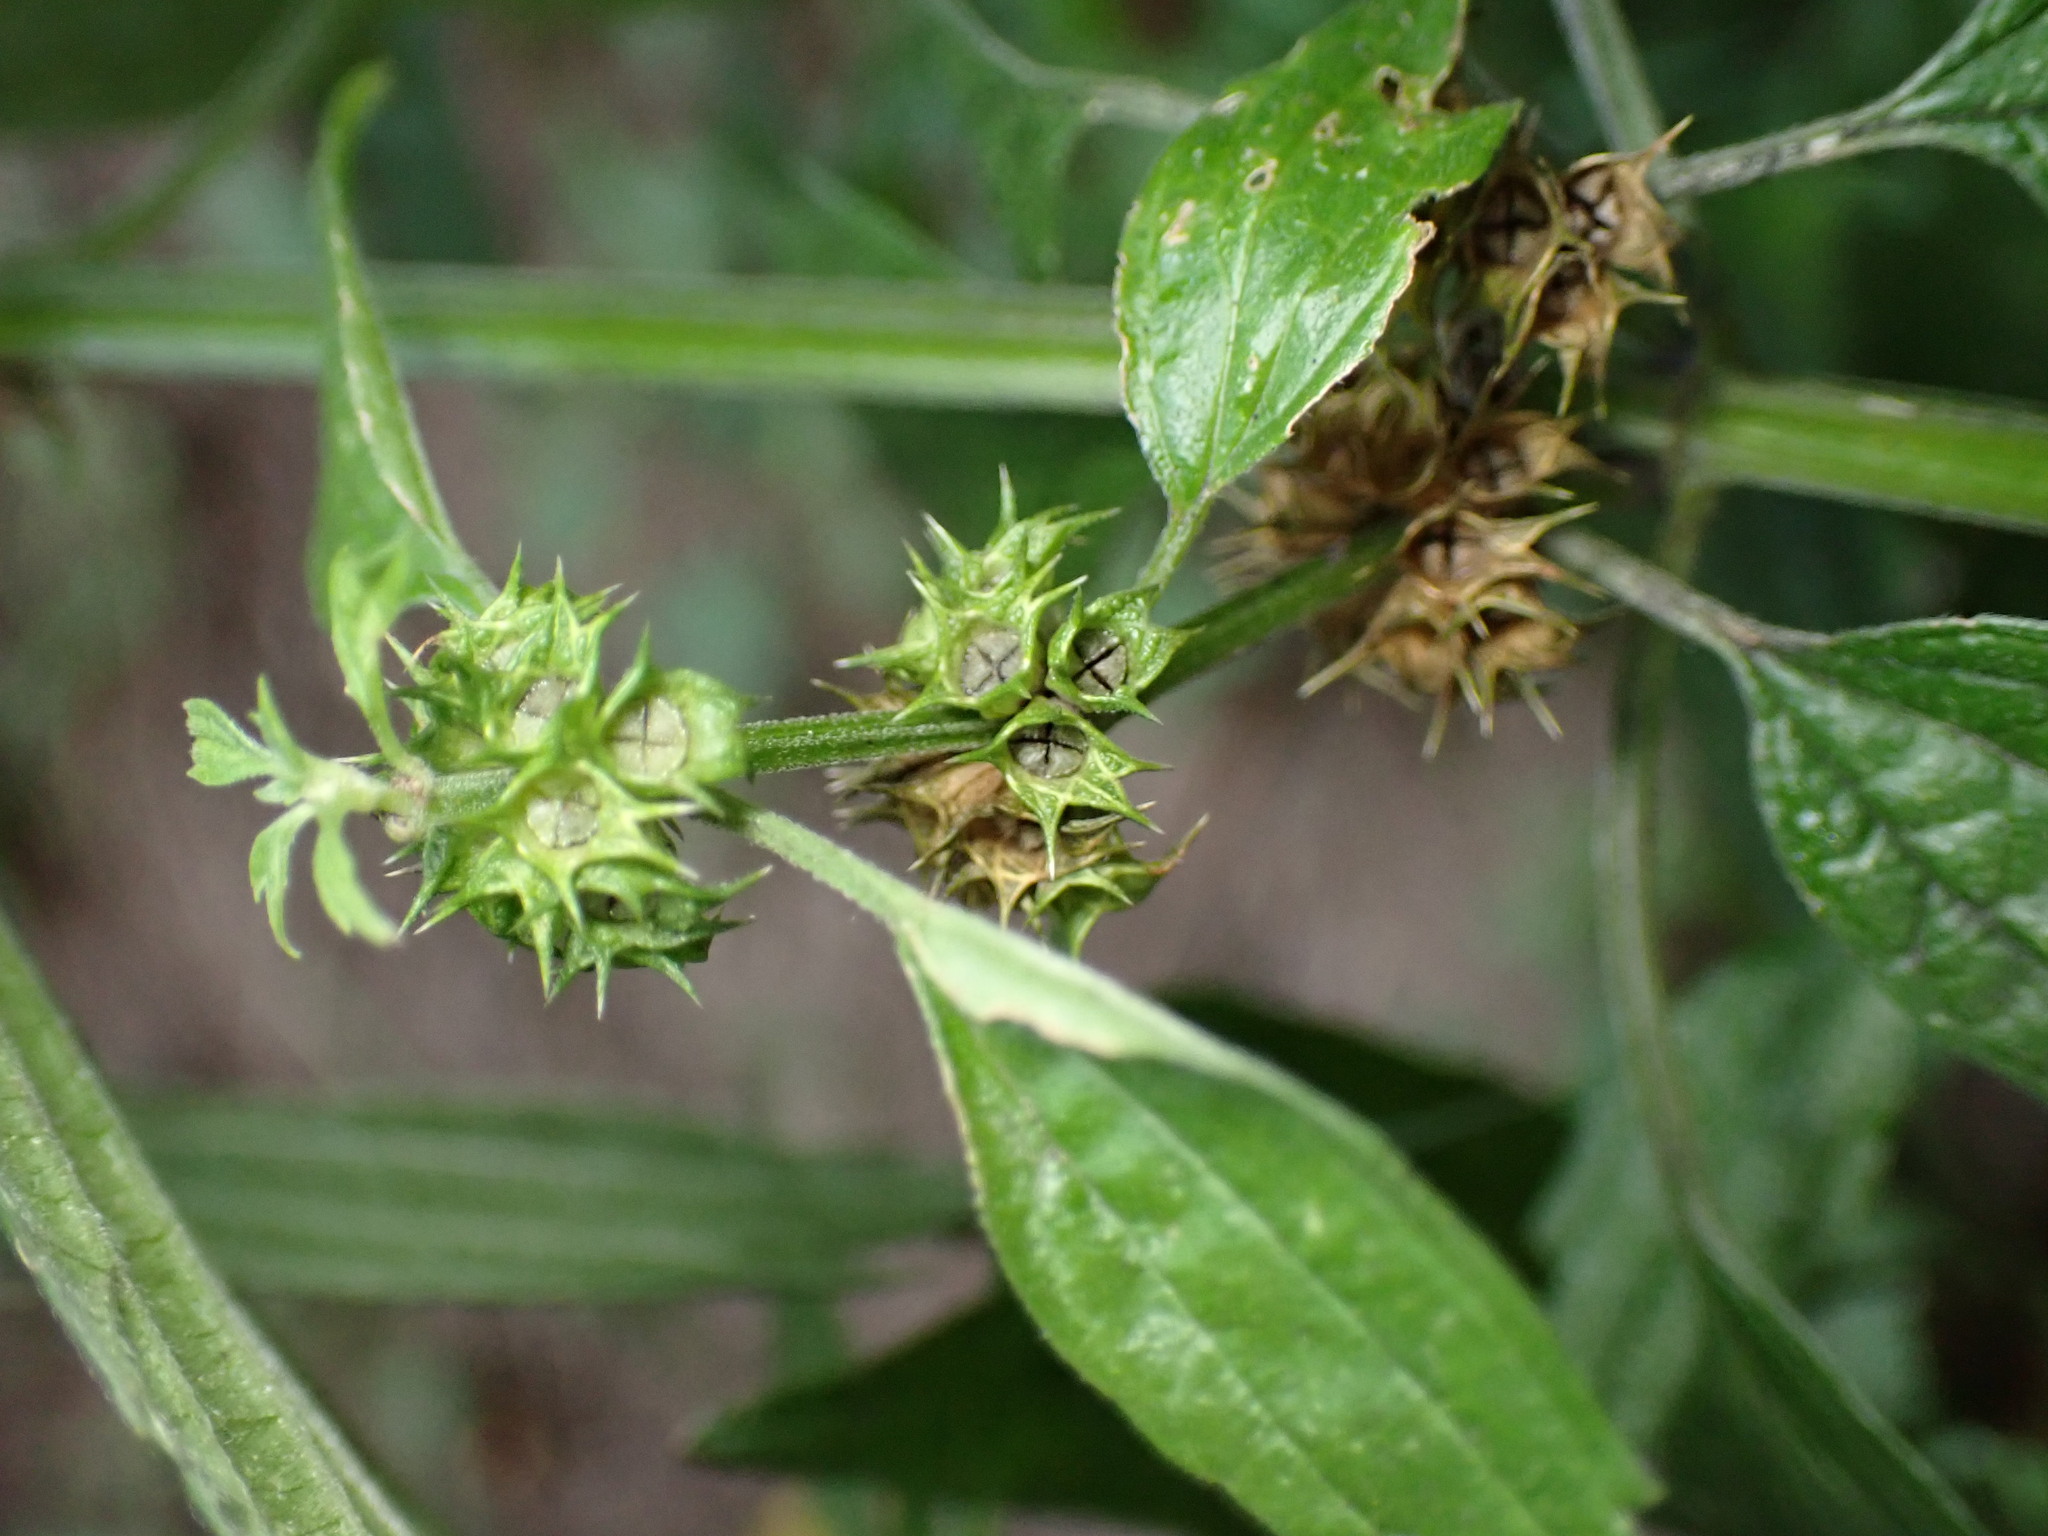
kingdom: Plantae
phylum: Tracheophyta
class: Magnoliopsida
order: Lamiales
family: Lamiaceae
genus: Leonurus
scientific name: Leonurus cardiaca
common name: Motherwort
